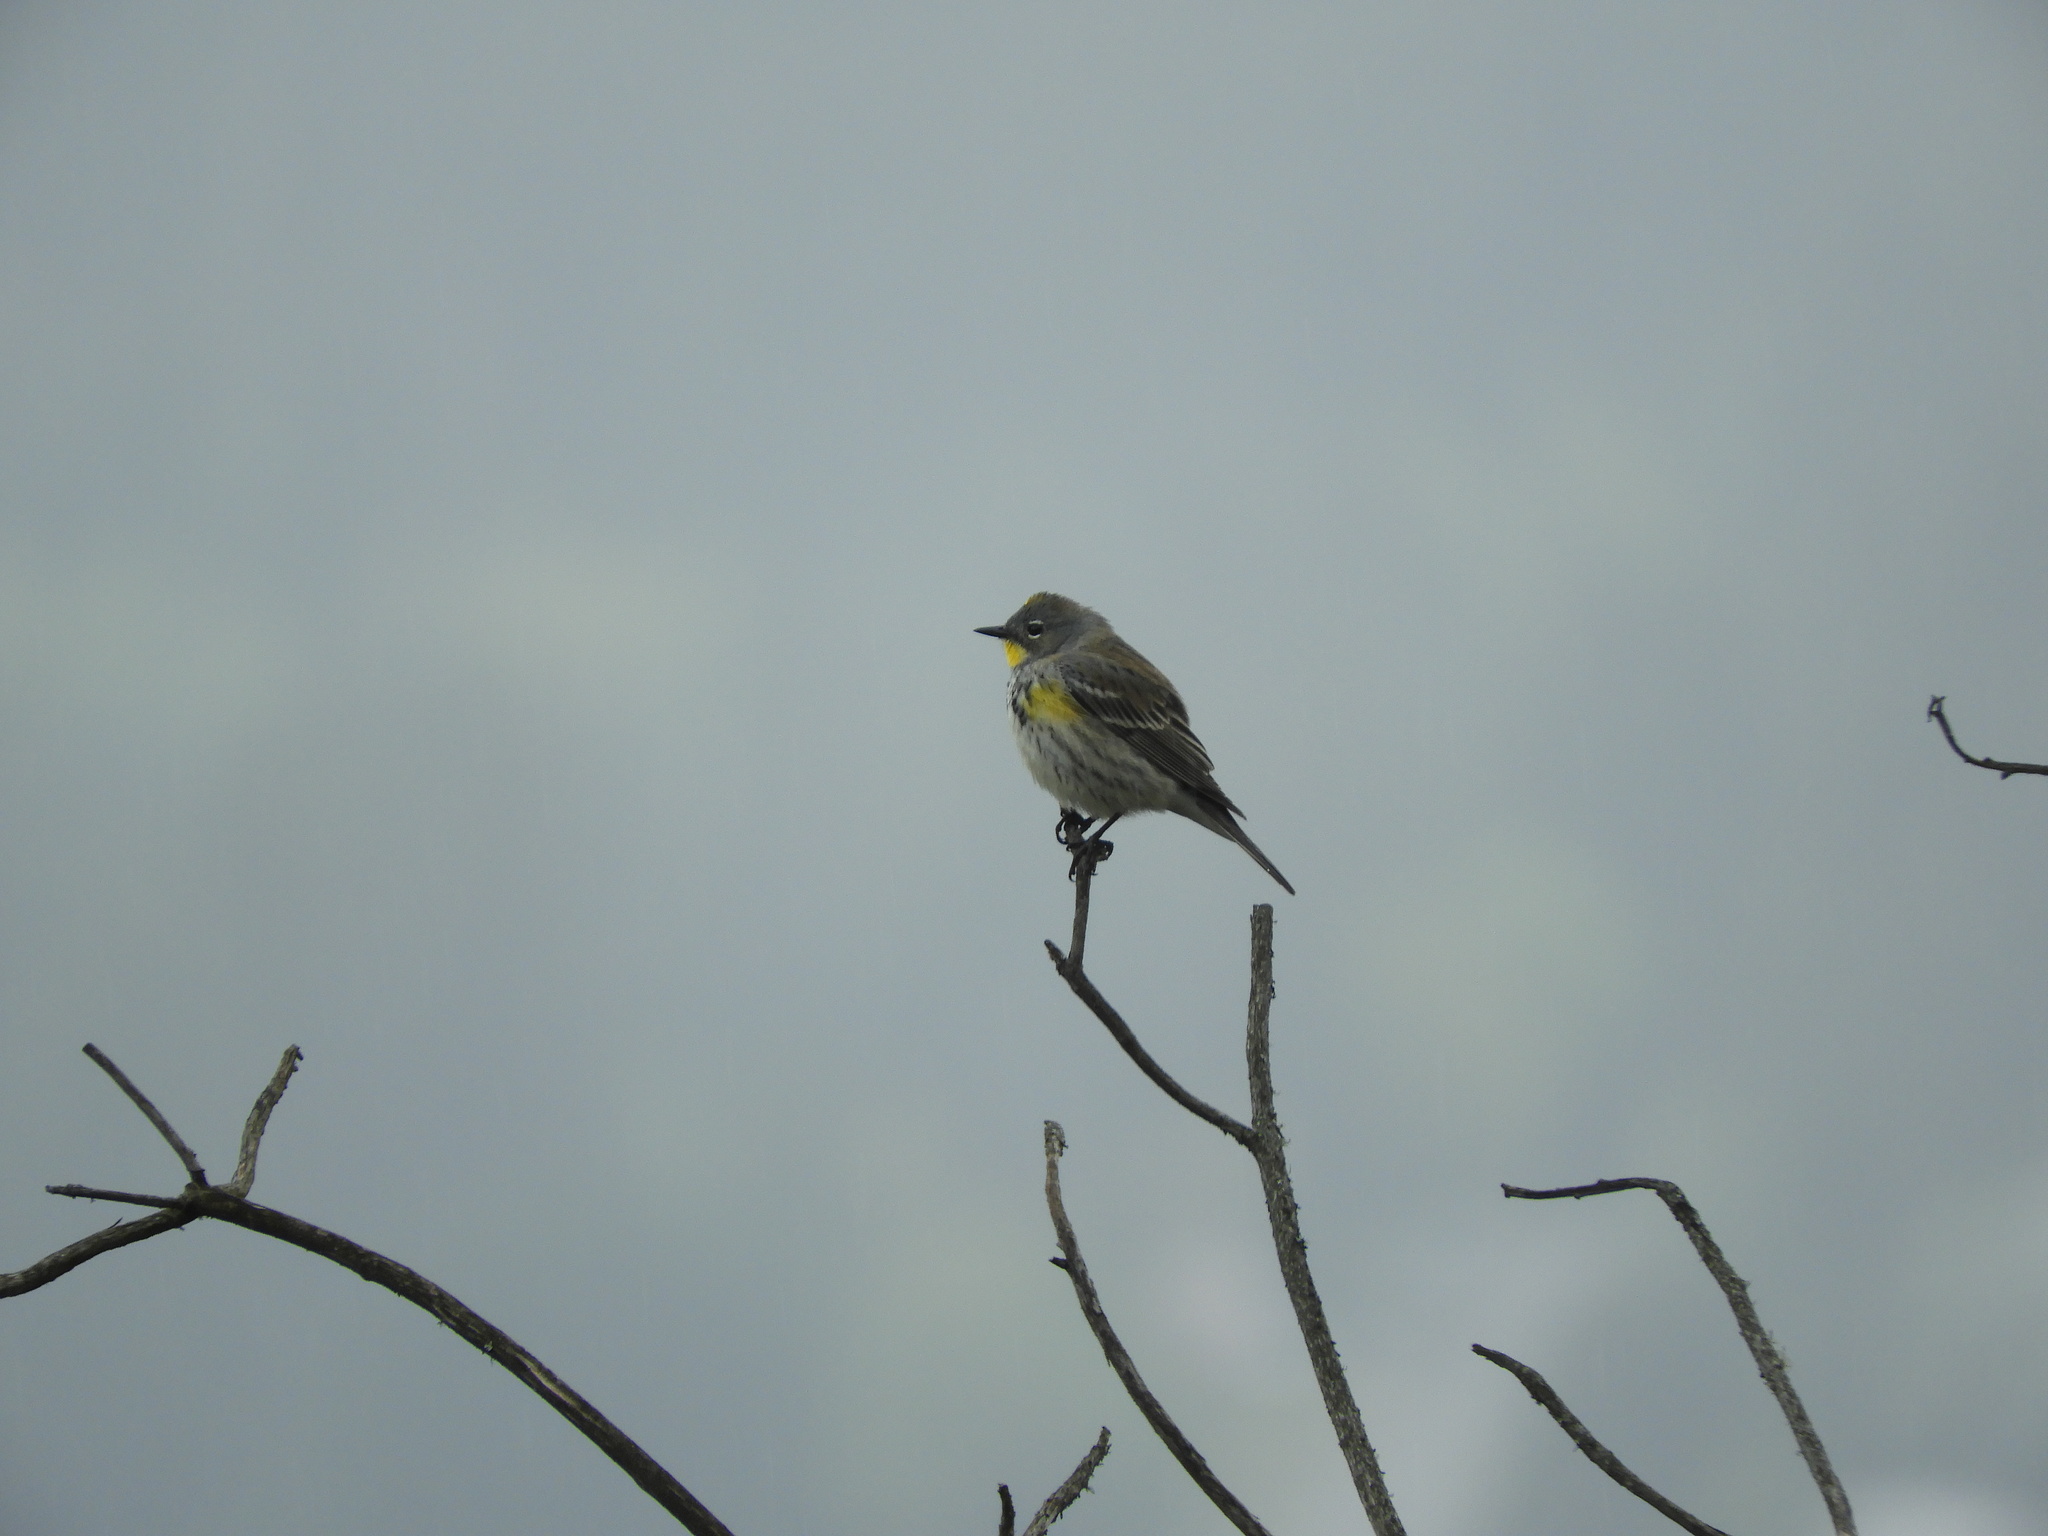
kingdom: Animalia
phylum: Chordata
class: Aves
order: Passeriformes
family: Parulidae
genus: Setophaga
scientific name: Setophaga auduboni
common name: Audubon's warbler
